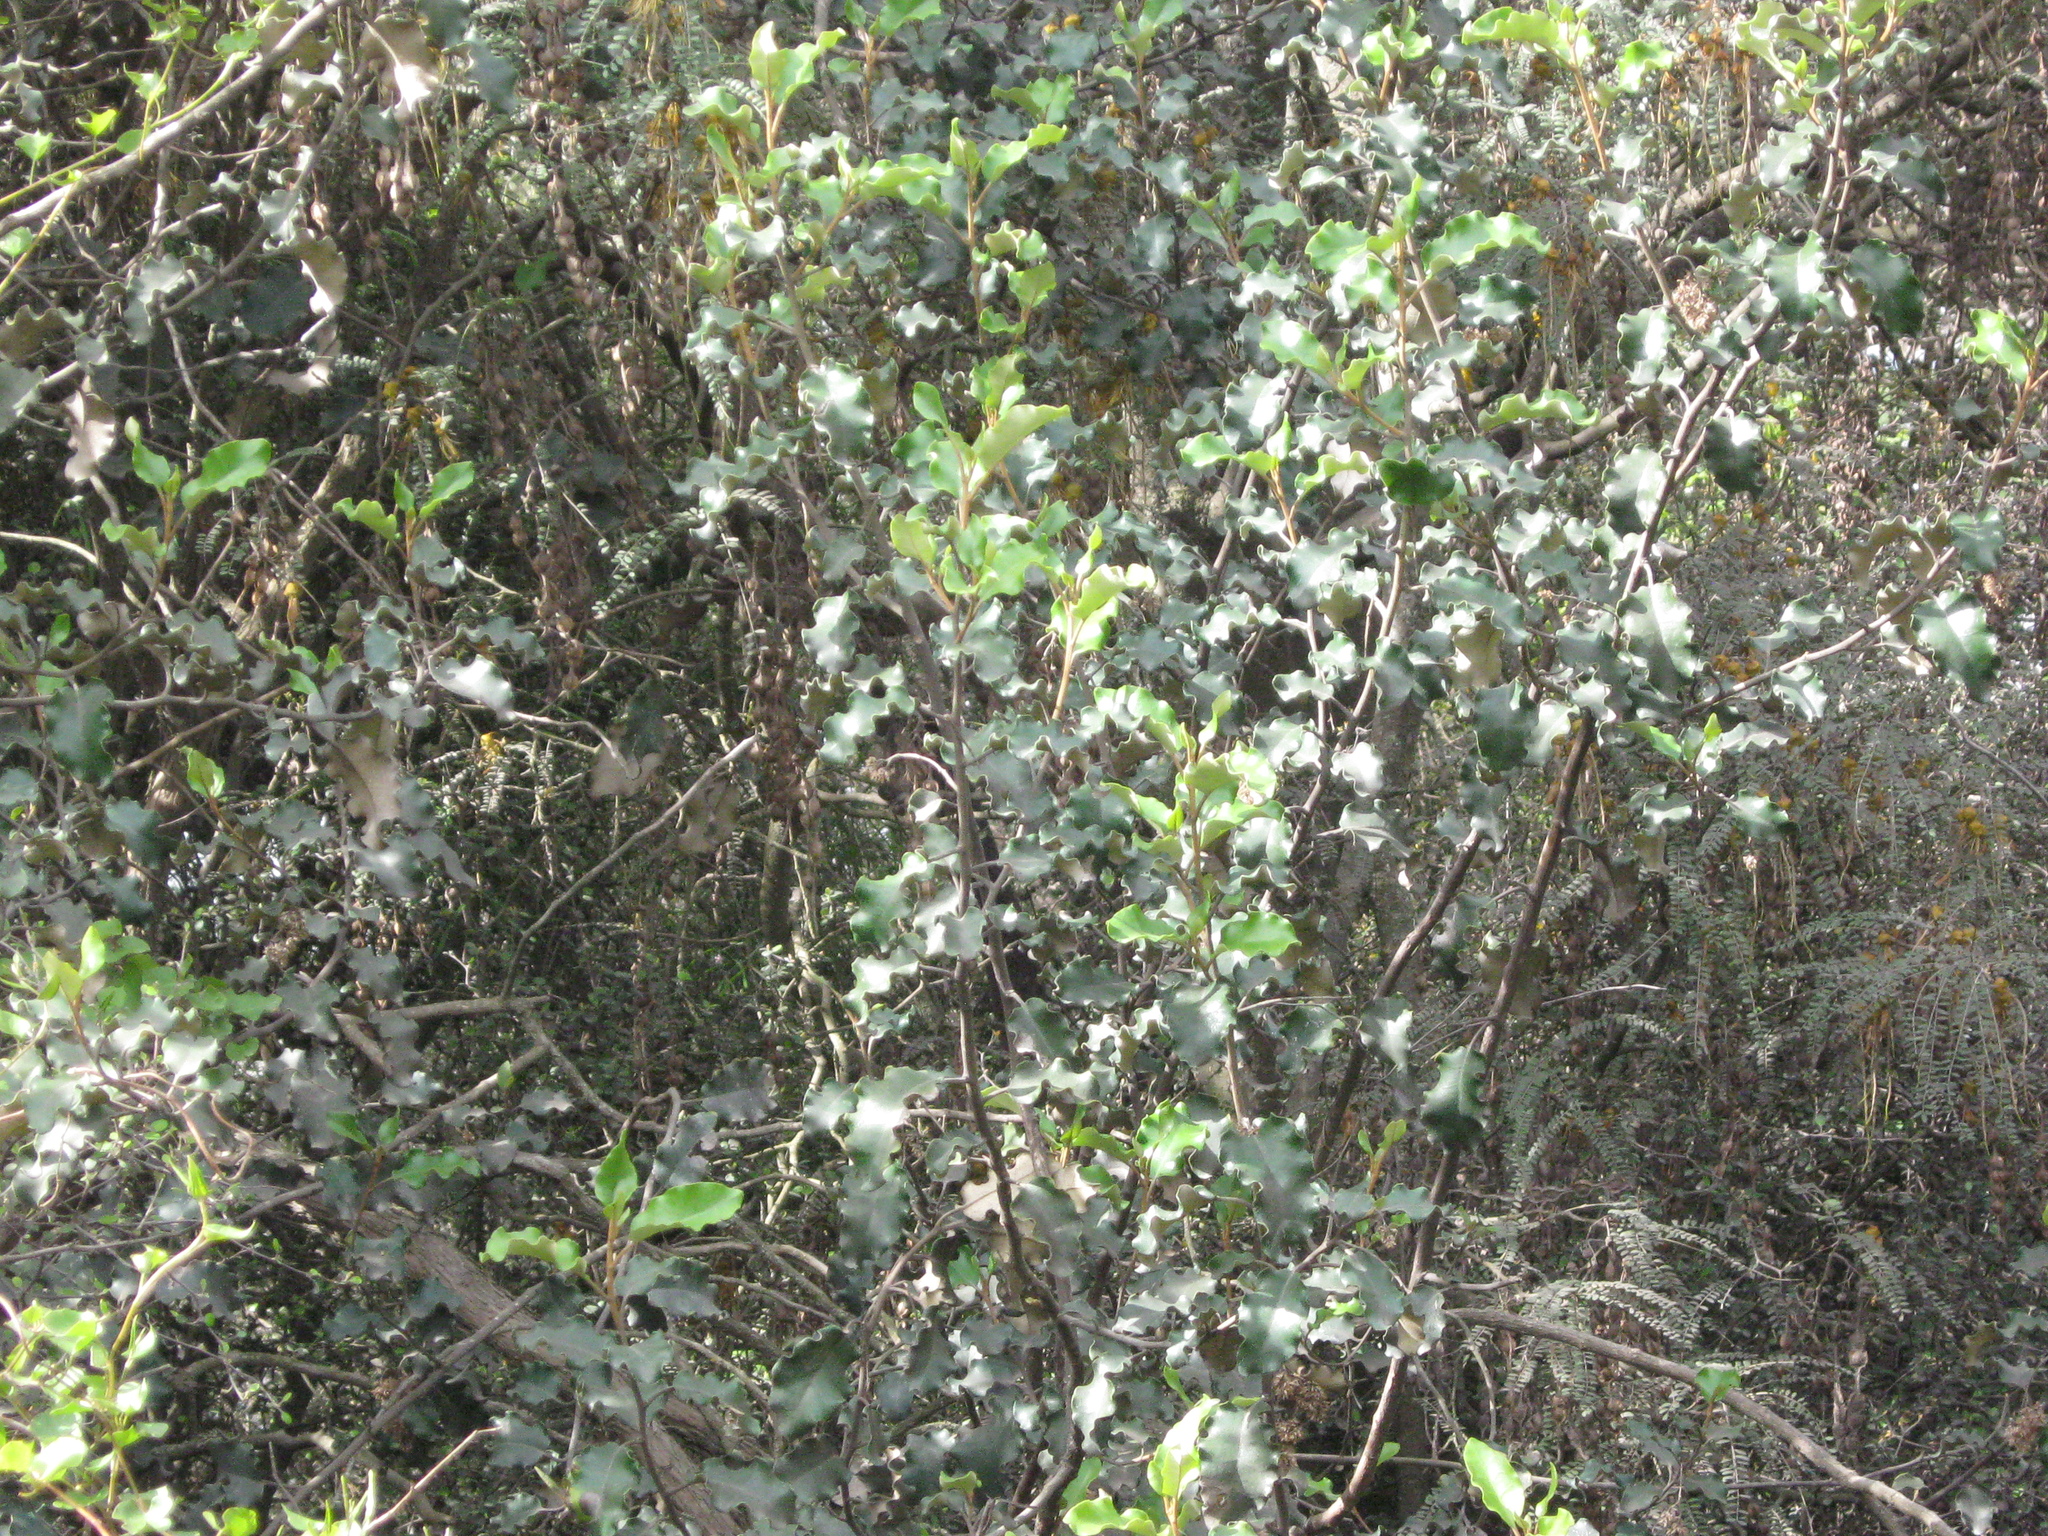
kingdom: Plantae
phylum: Tracheophyta
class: Magnoliopsida
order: Asterales
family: Asteraceae
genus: Olearia
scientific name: Olearia paniculata
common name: Akiraho
